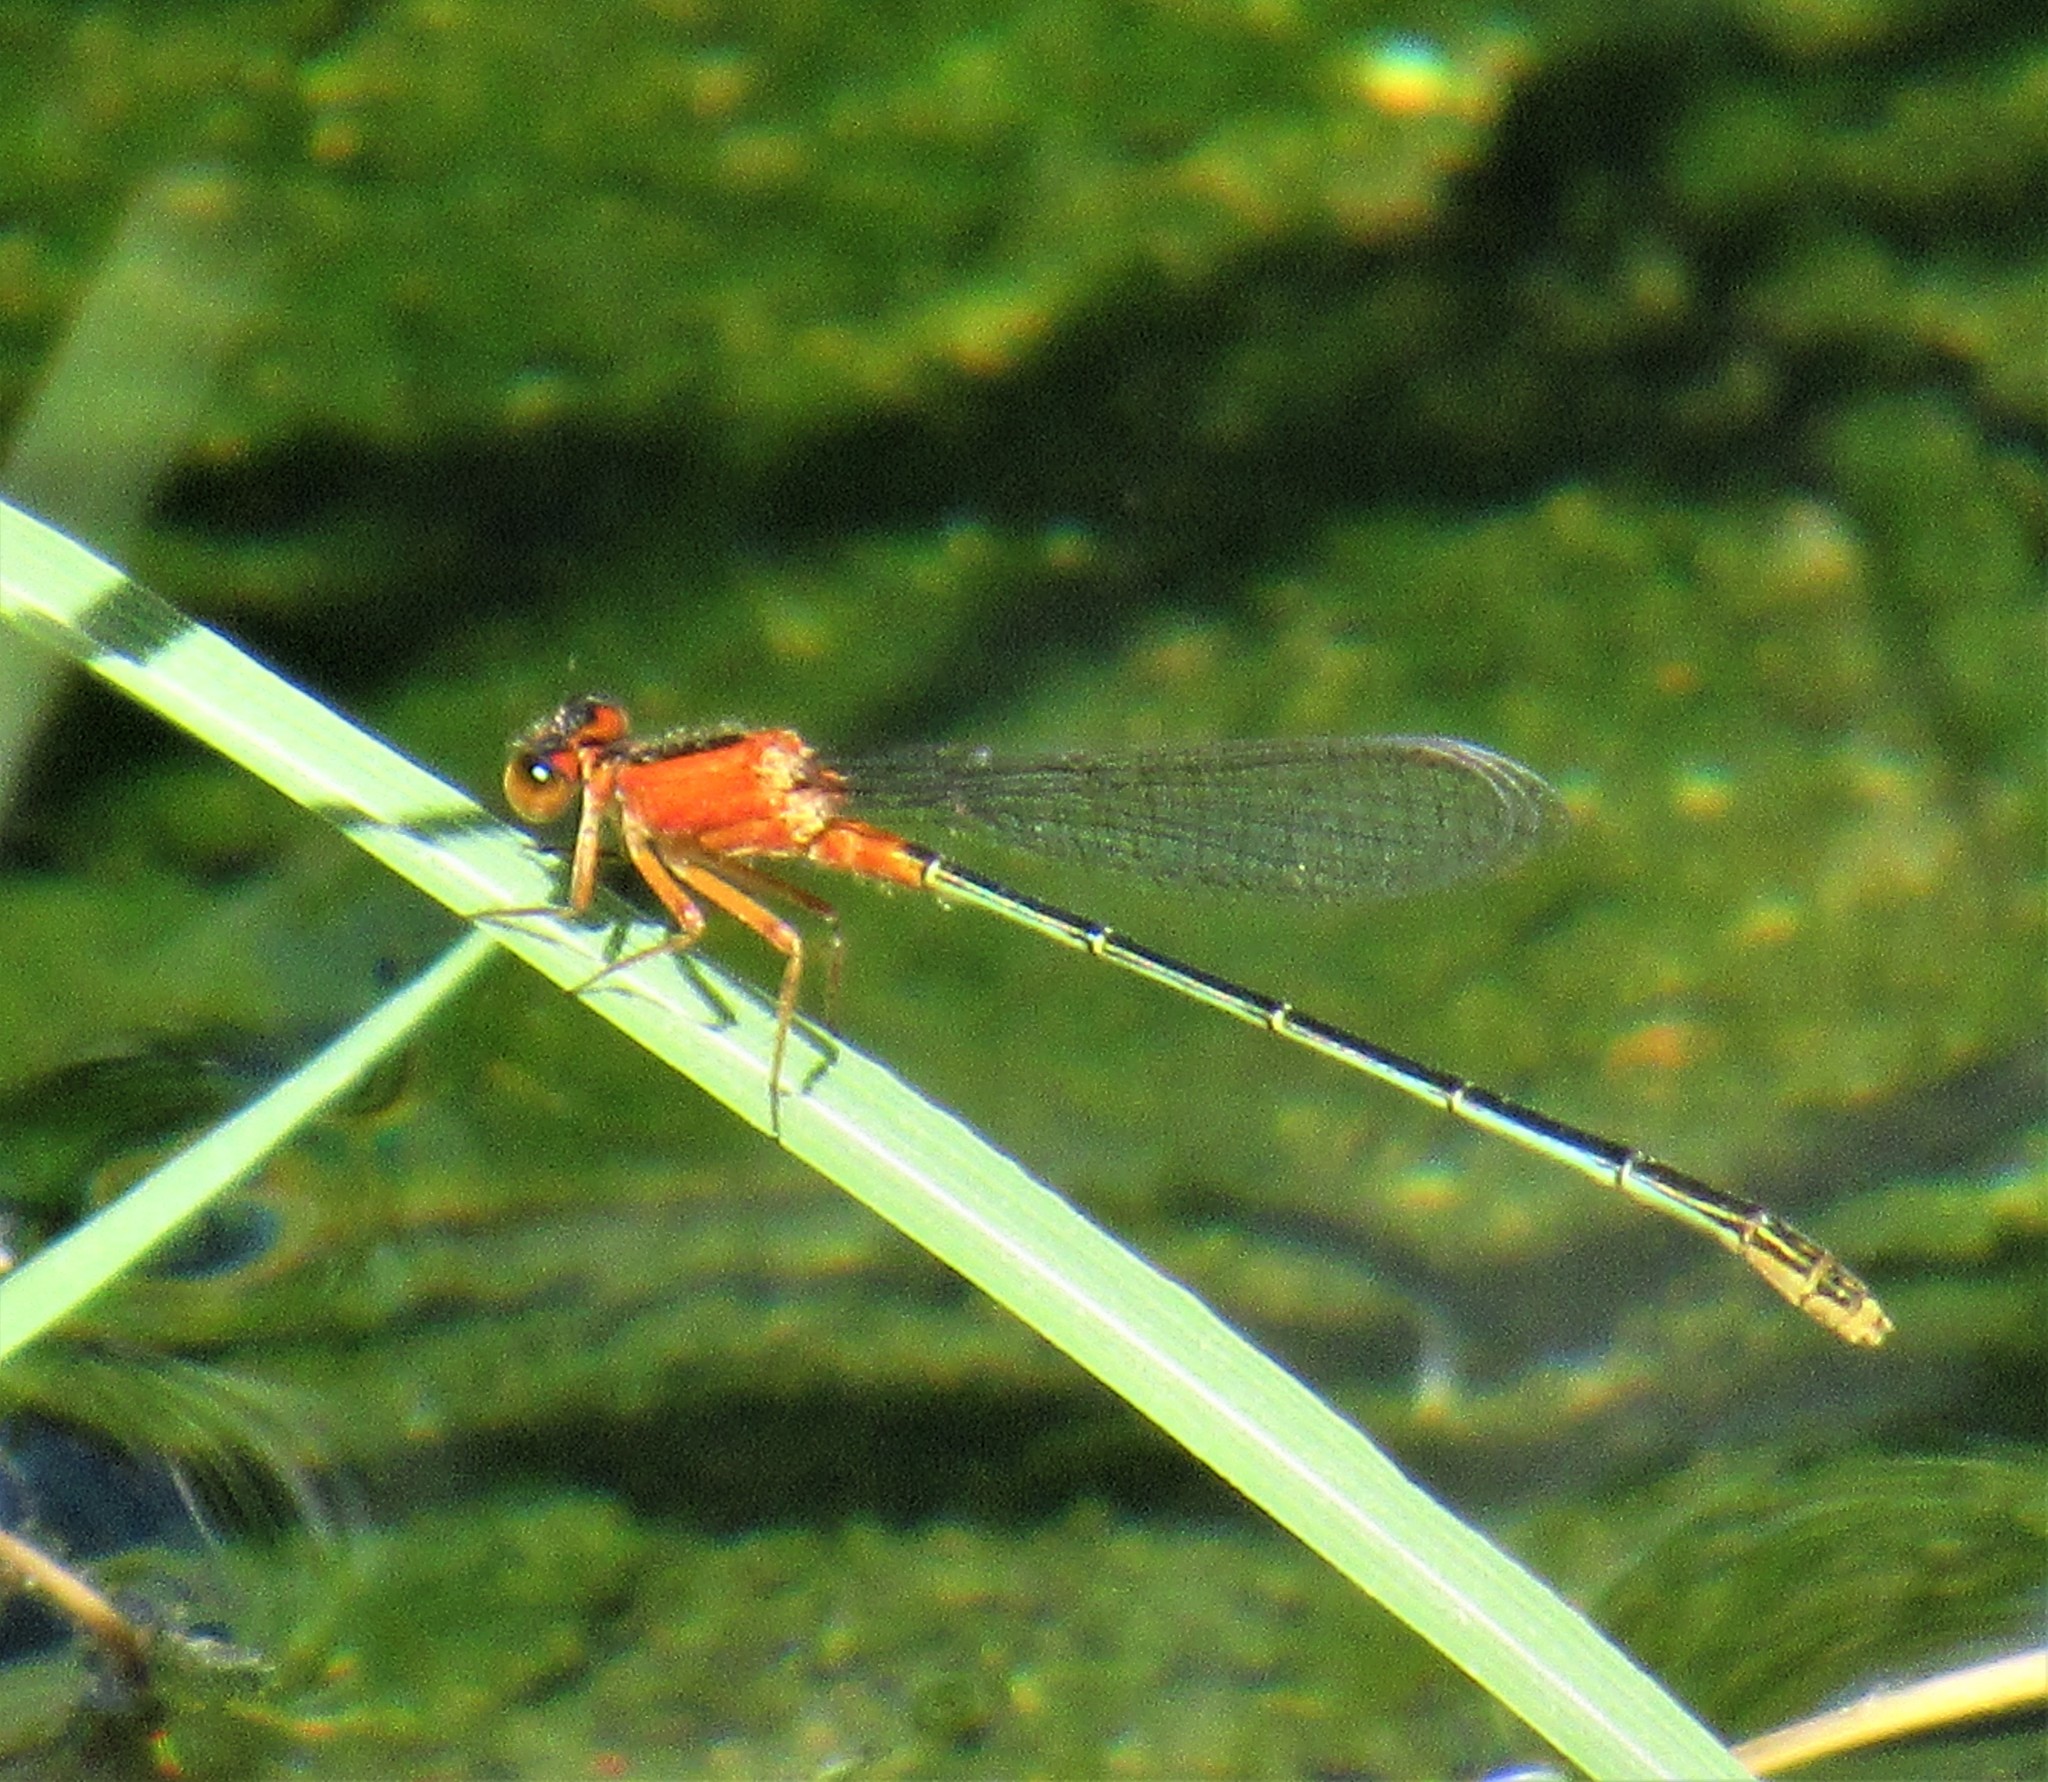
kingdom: Animalia
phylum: Arthropoda
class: Insecta
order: Odonata
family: Coenagrionidae
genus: Ischnura
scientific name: Ischnura ramburii
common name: Rambur's forktail
